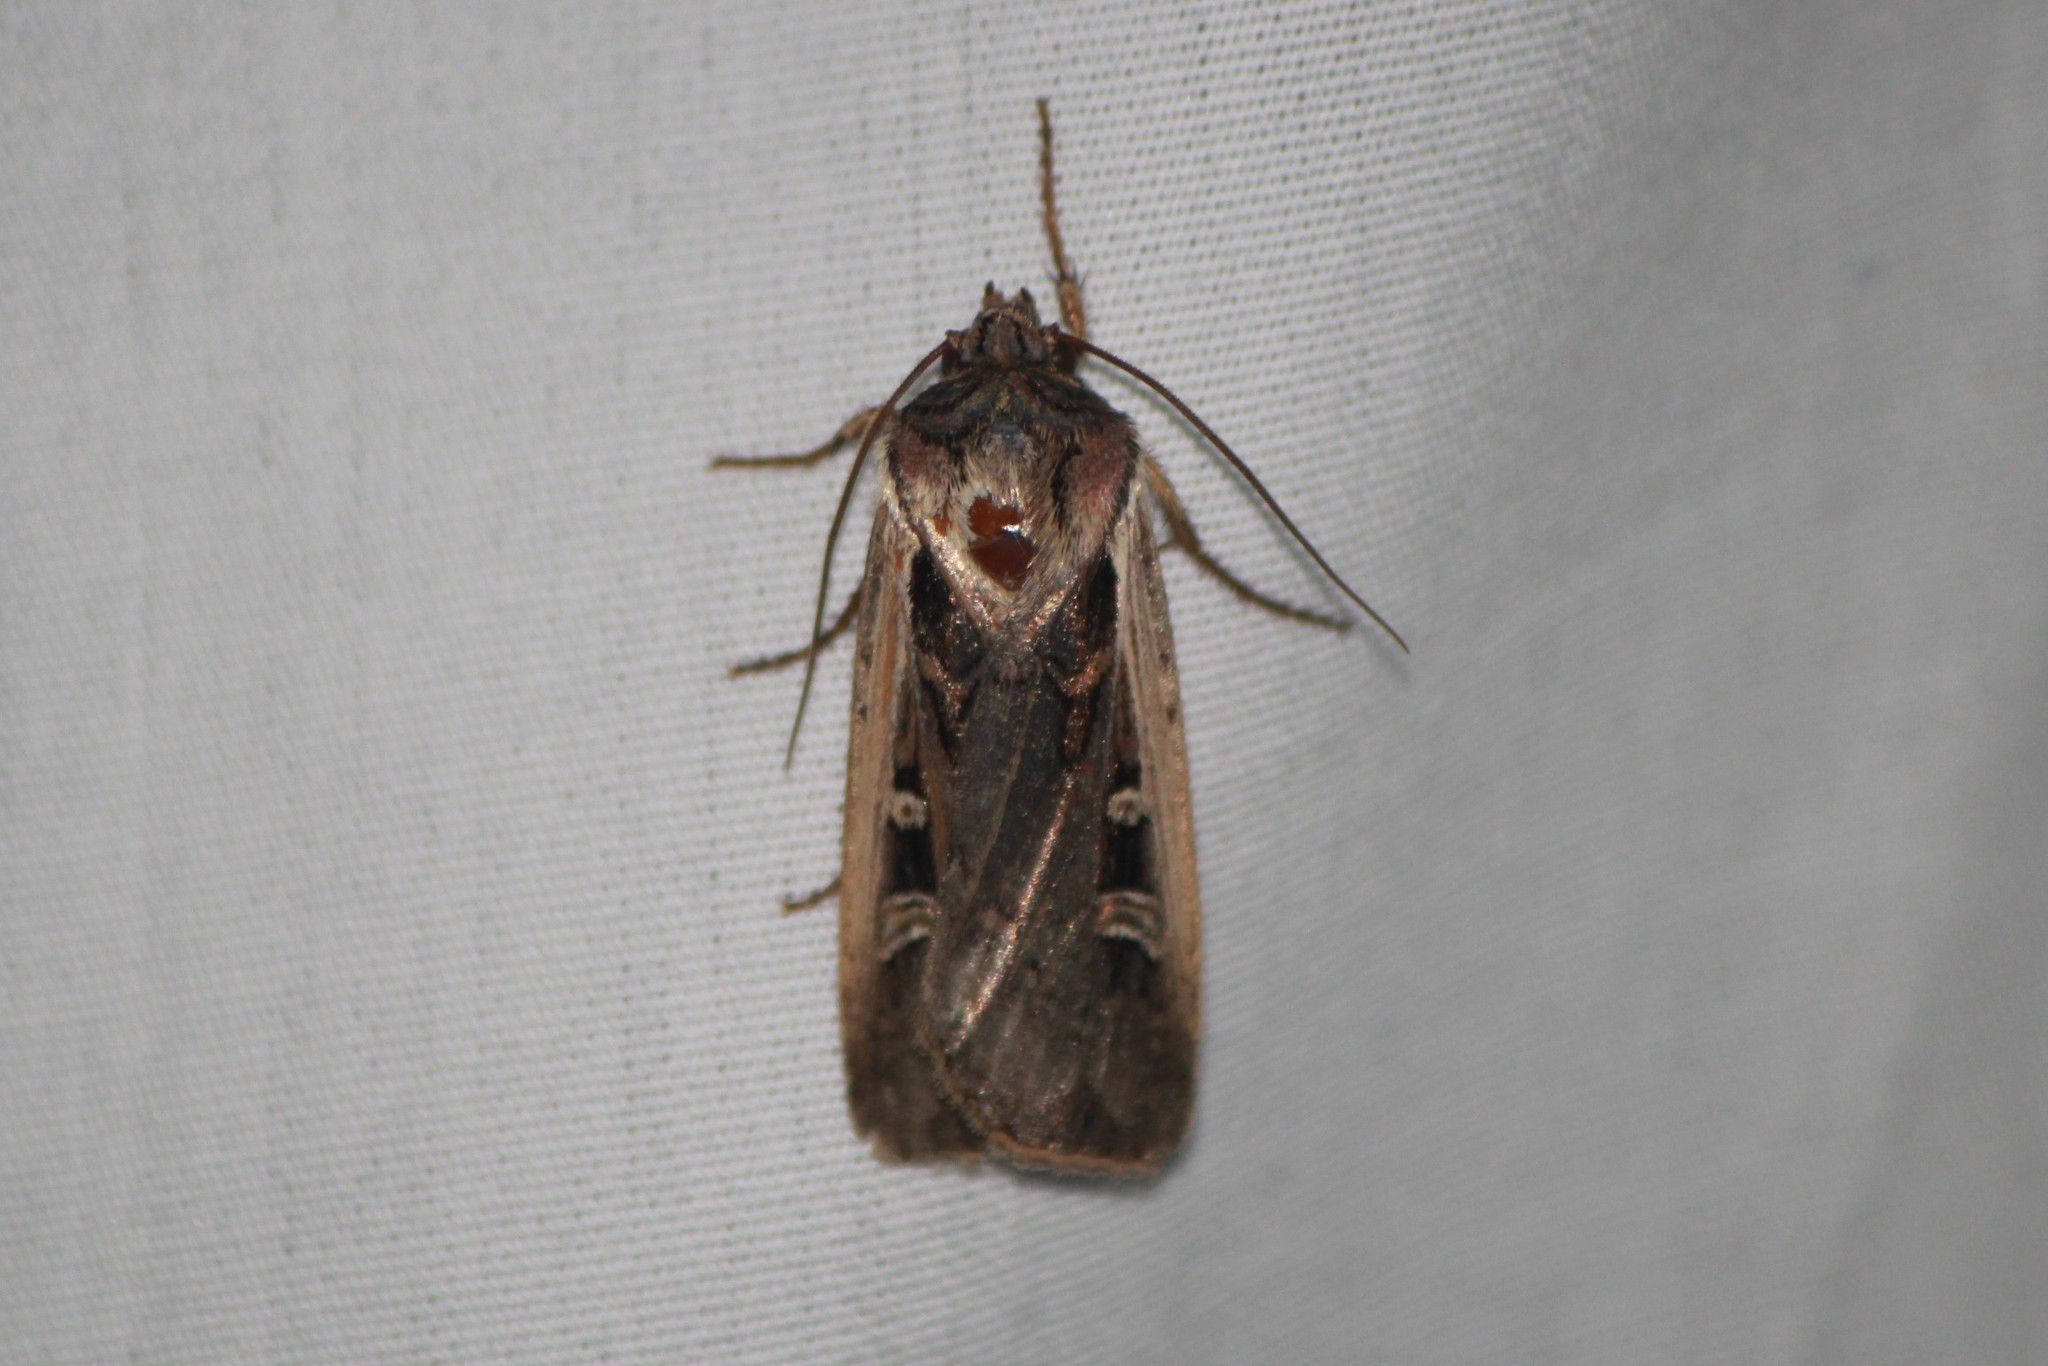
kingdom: Animalia
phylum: Arthropoda
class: Insecta
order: Lepidoptera
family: Noctuidae
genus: Striacosta
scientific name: Striacosta albicosta
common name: Western bean cutworm moth
